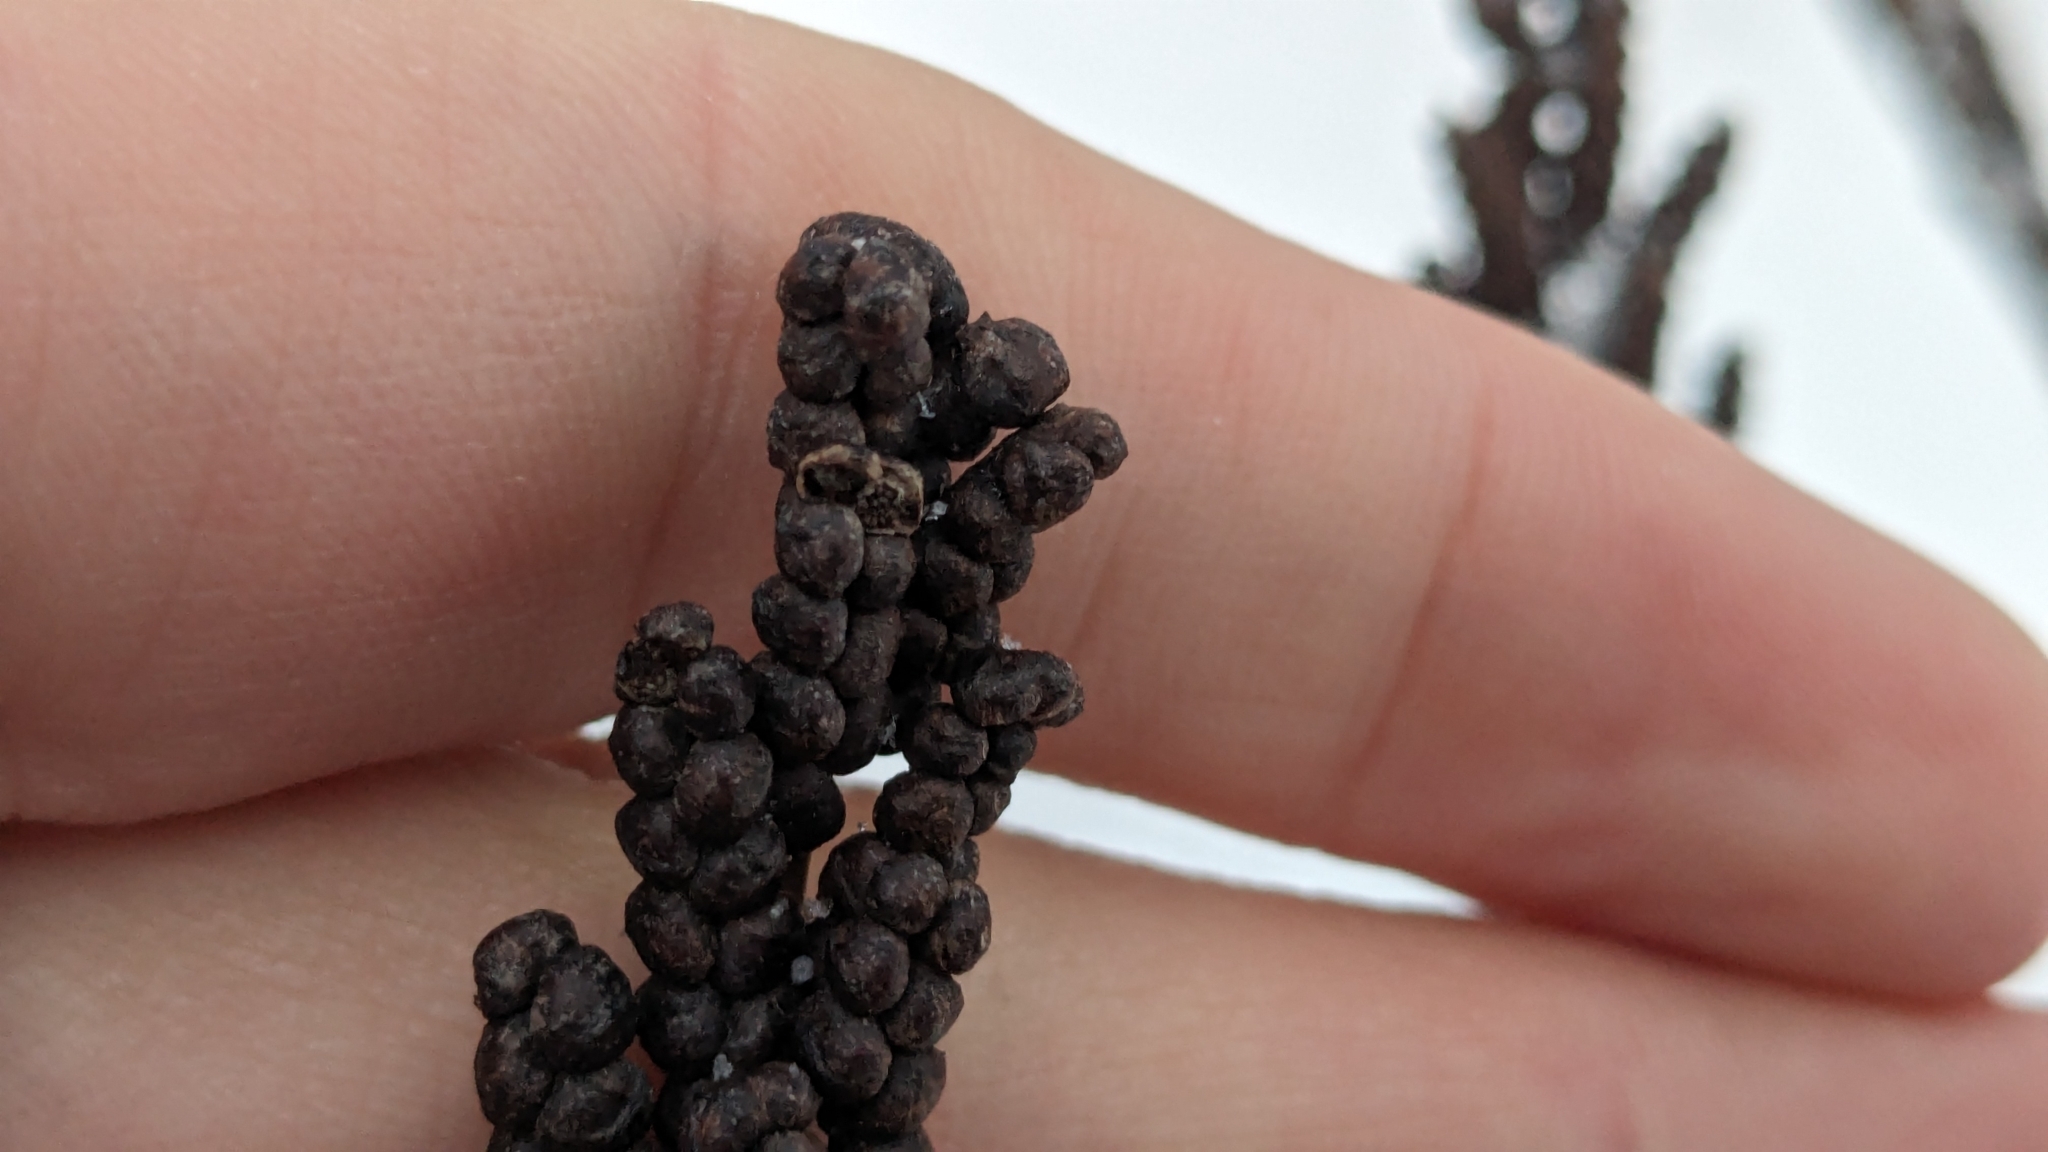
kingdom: Plantae
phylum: Tracheophyta
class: Polypodiopsida
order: Polypodiales
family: Onocleaceae
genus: Onoclea
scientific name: Onoclea sensibilis
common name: Sensitive fern
